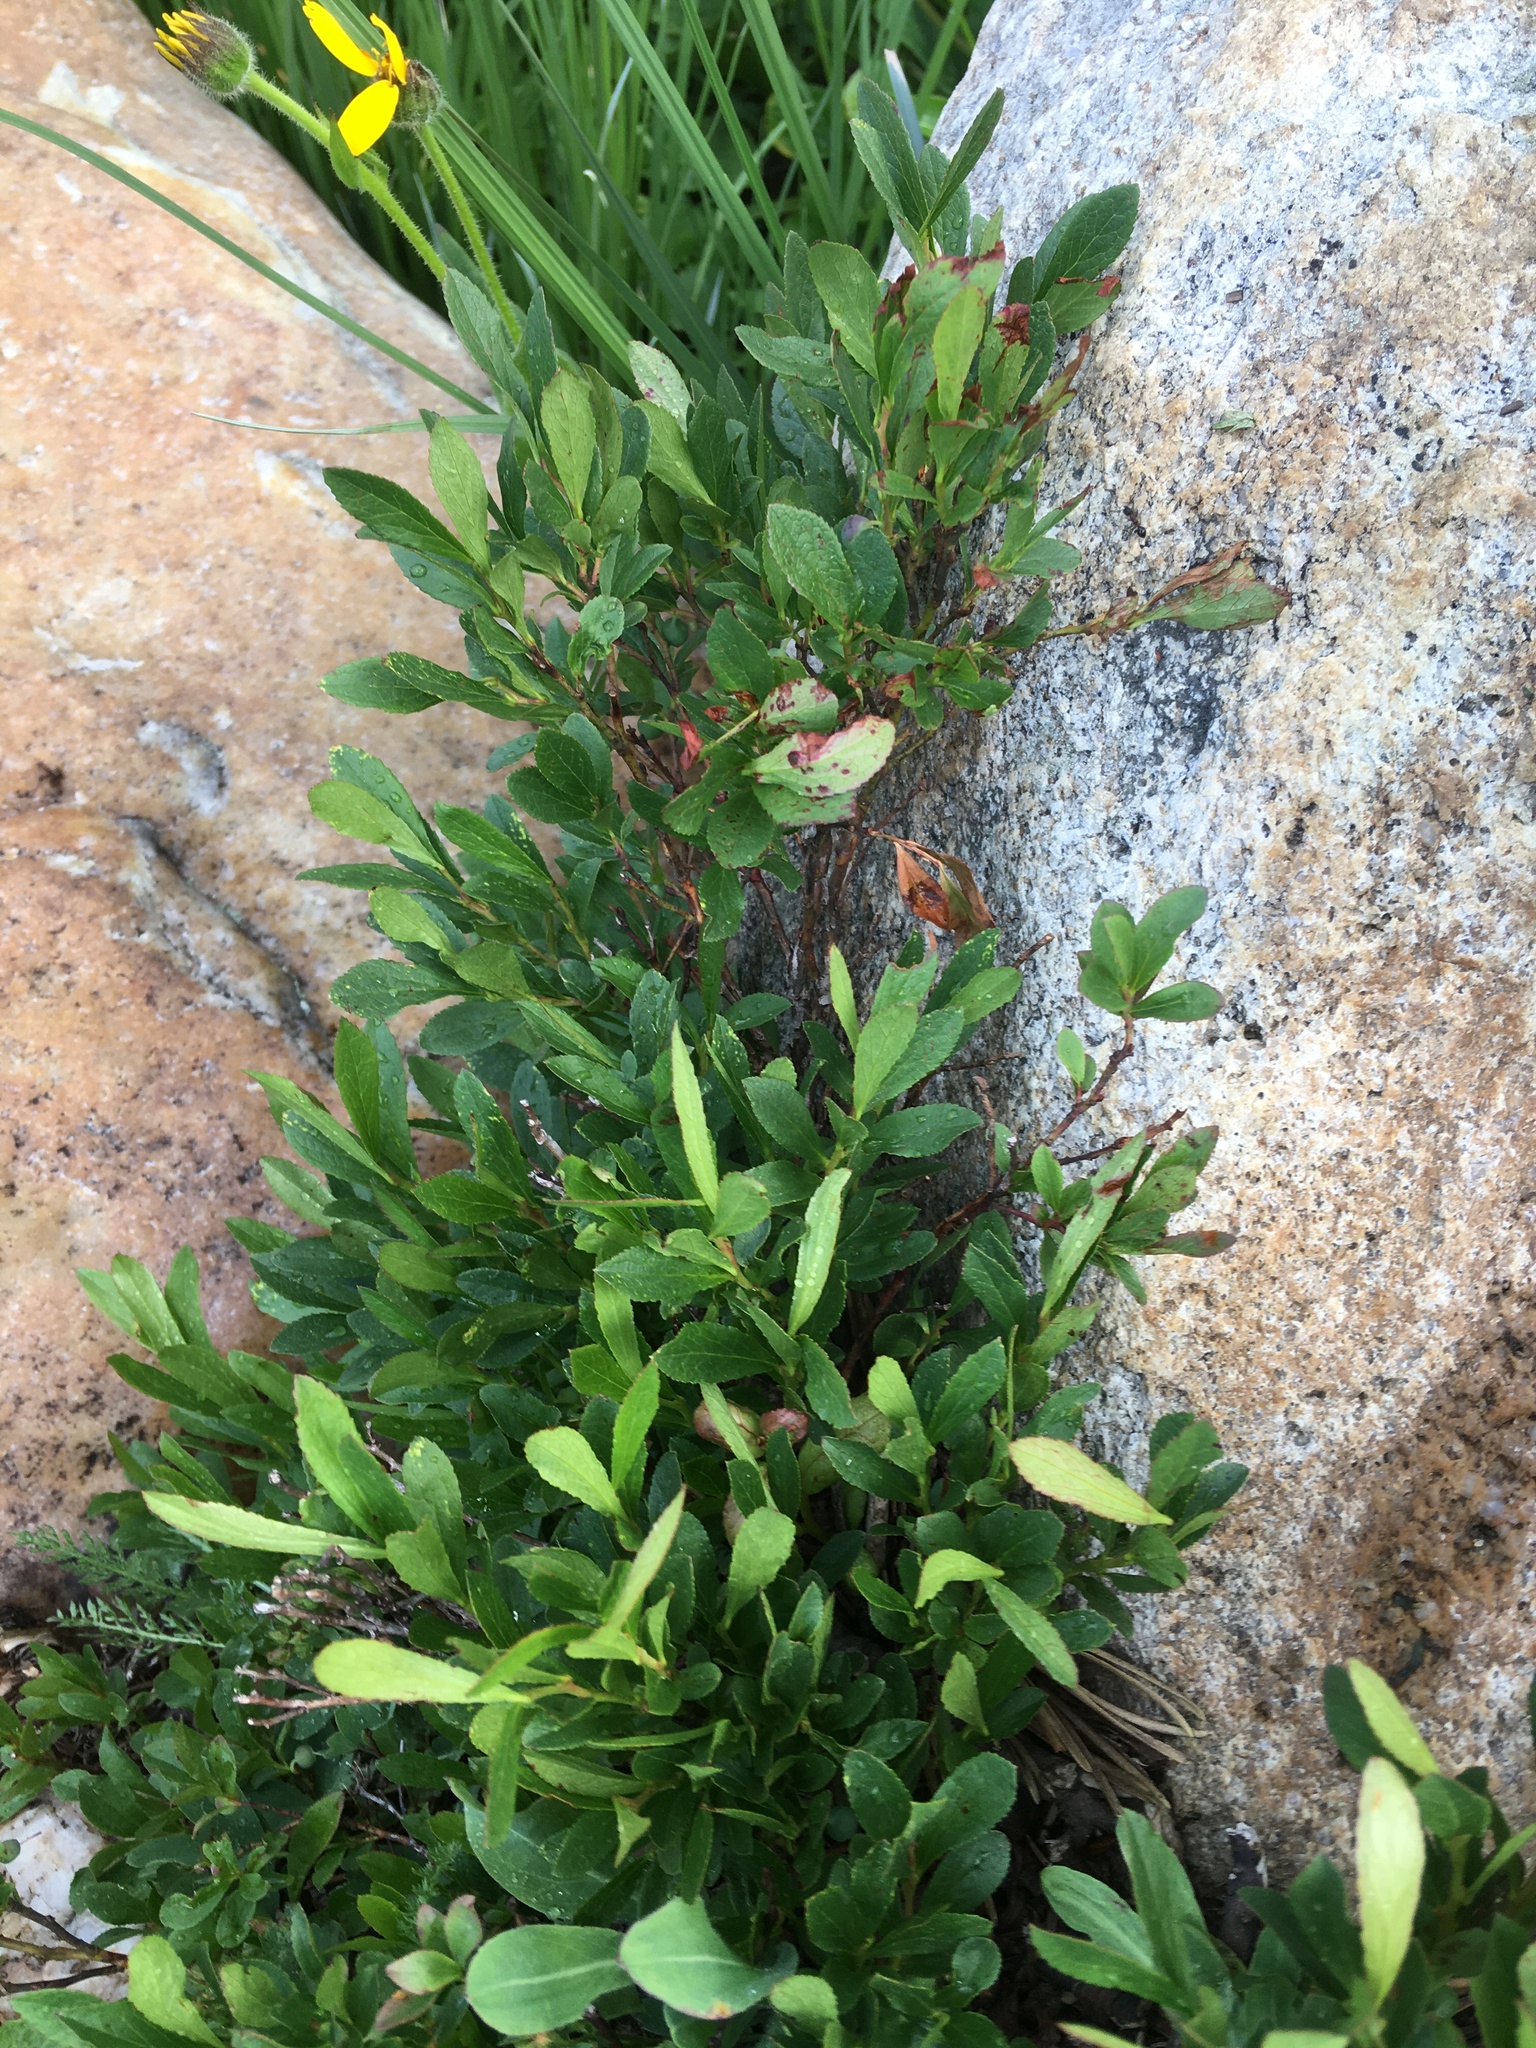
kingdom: Plantae
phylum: Tracheophyta
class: Magnoliopsida
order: Ericales
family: Ericaceae
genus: Vaccinium
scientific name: Vaccinium cespitosum
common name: Dwarf bilberry
